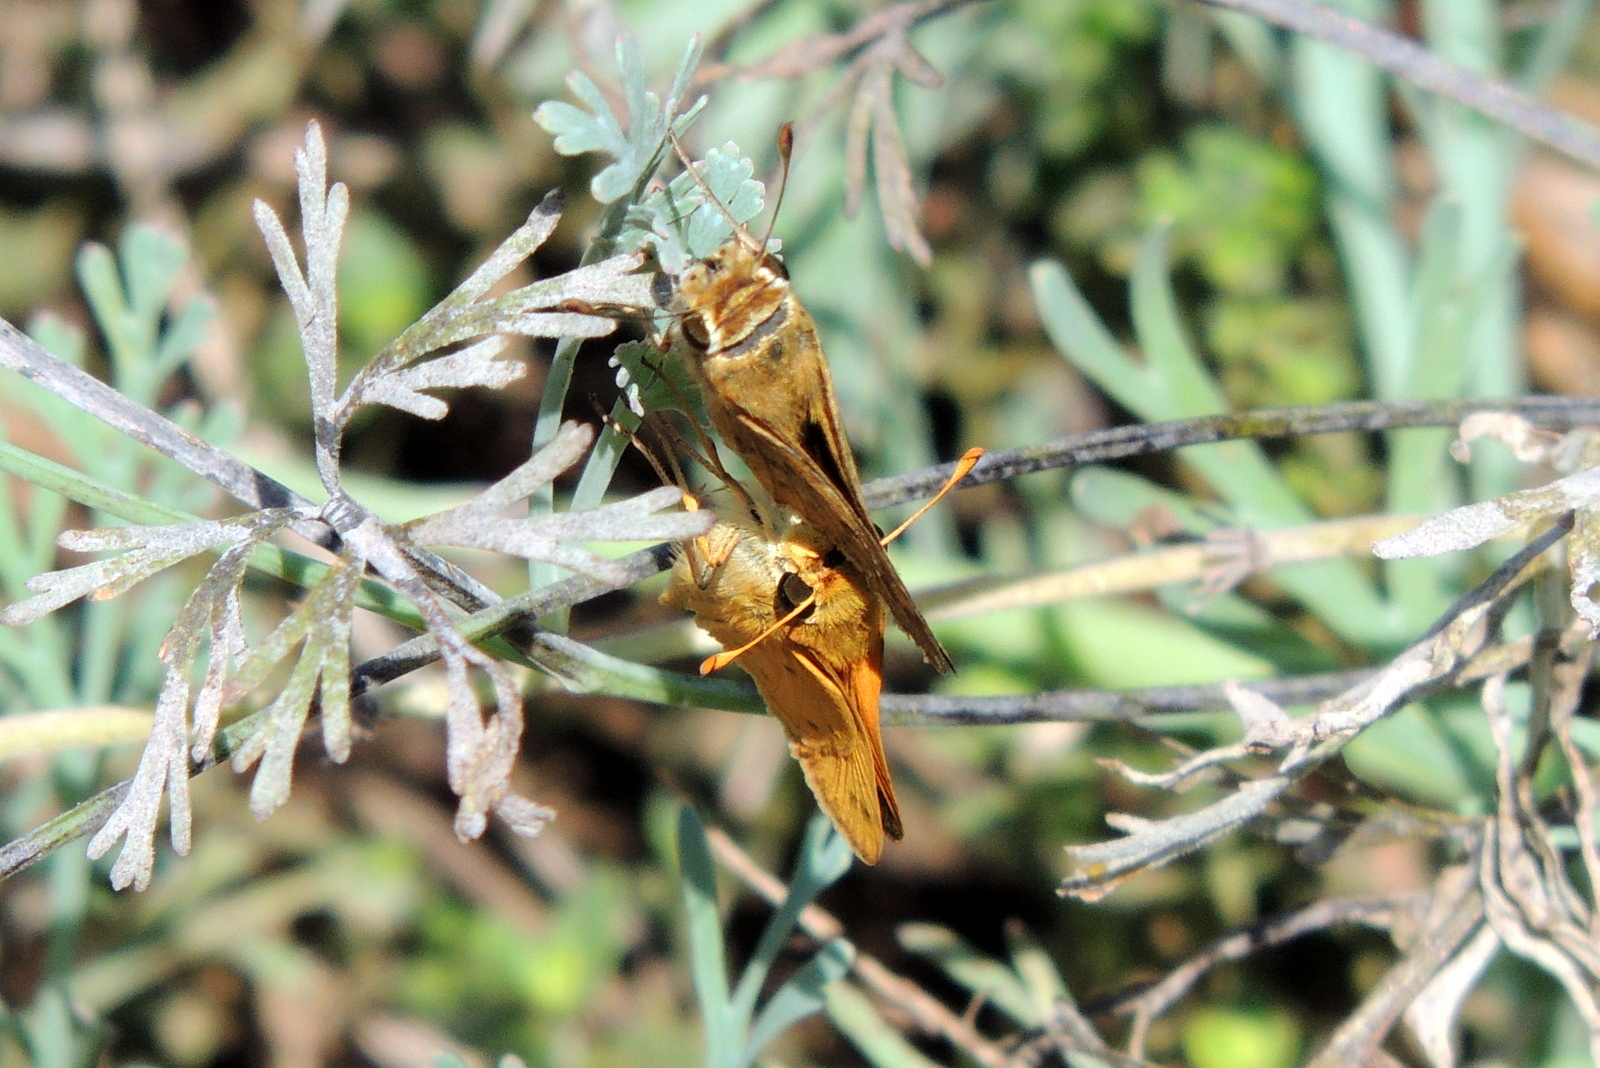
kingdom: Animalia
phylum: Arthropoda
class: Insecta
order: Lepidoptera
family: Hesperiidae
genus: Hylephila
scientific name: Hylephila phyleus
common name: Fiery skipper
